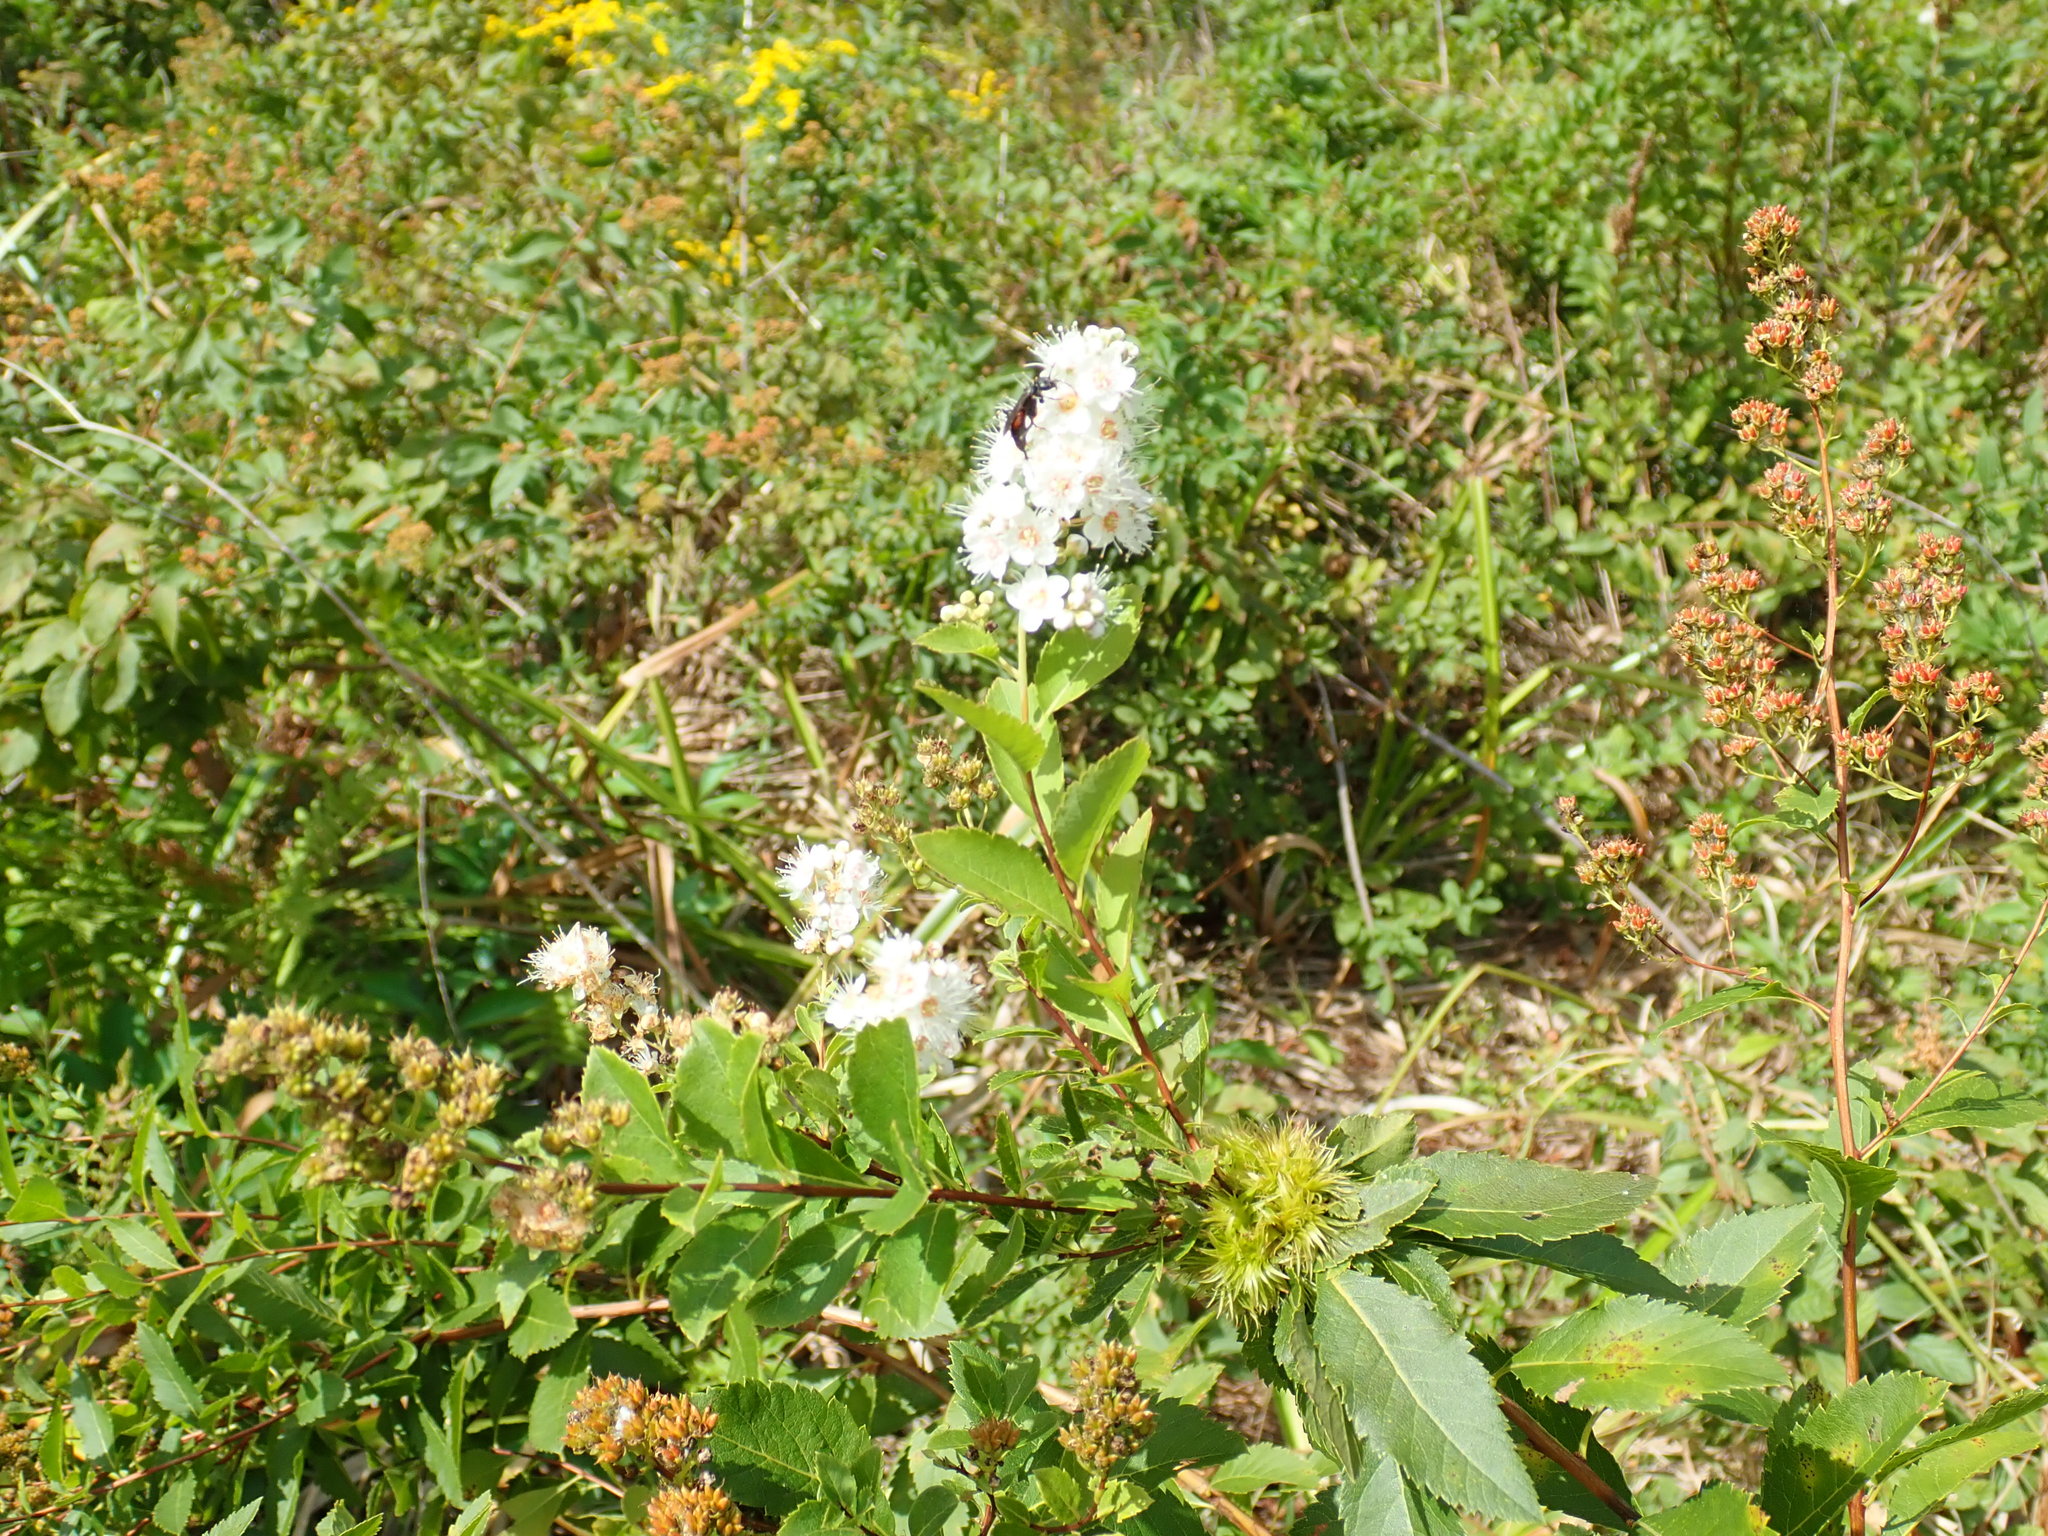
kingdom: Plantae
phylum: Tracheophyta
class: Magnoliopsida
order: Rosales
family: Rosaceae
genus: Spiraea
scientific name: Spiraea alba
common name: Pale bridewort
